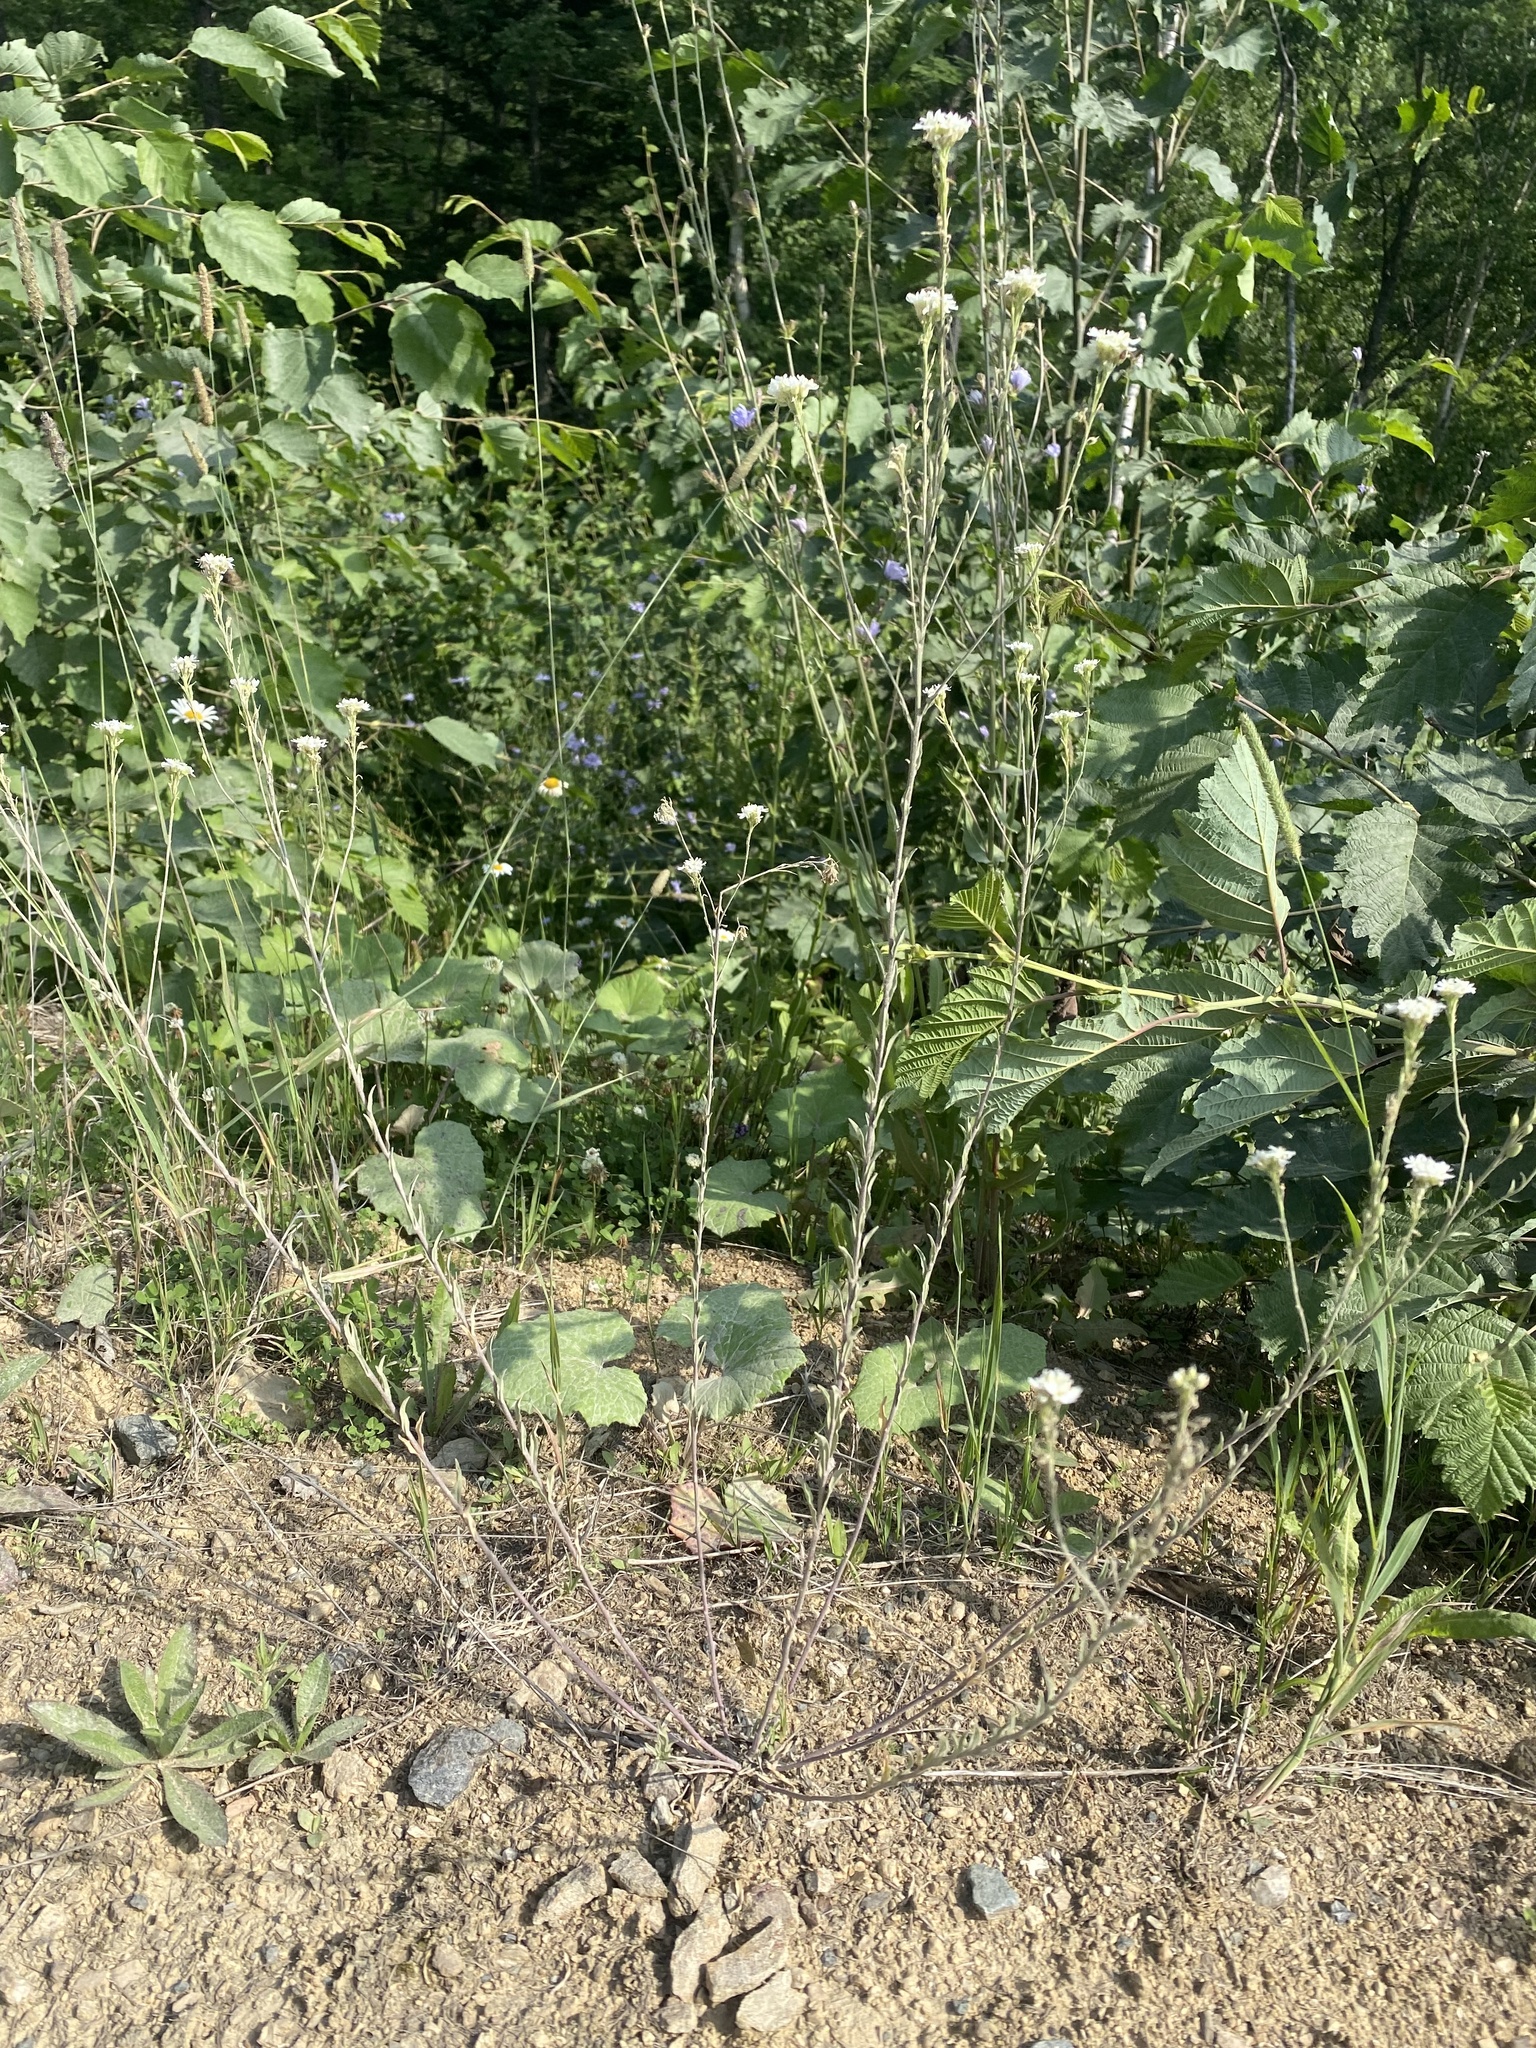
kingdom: Plantae
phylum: Tracheophyta
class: Magnoliopsida
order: Brassicales
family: Brassicaceae
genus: Berteroa
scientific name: Berteroa incana
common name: Hoary alison
